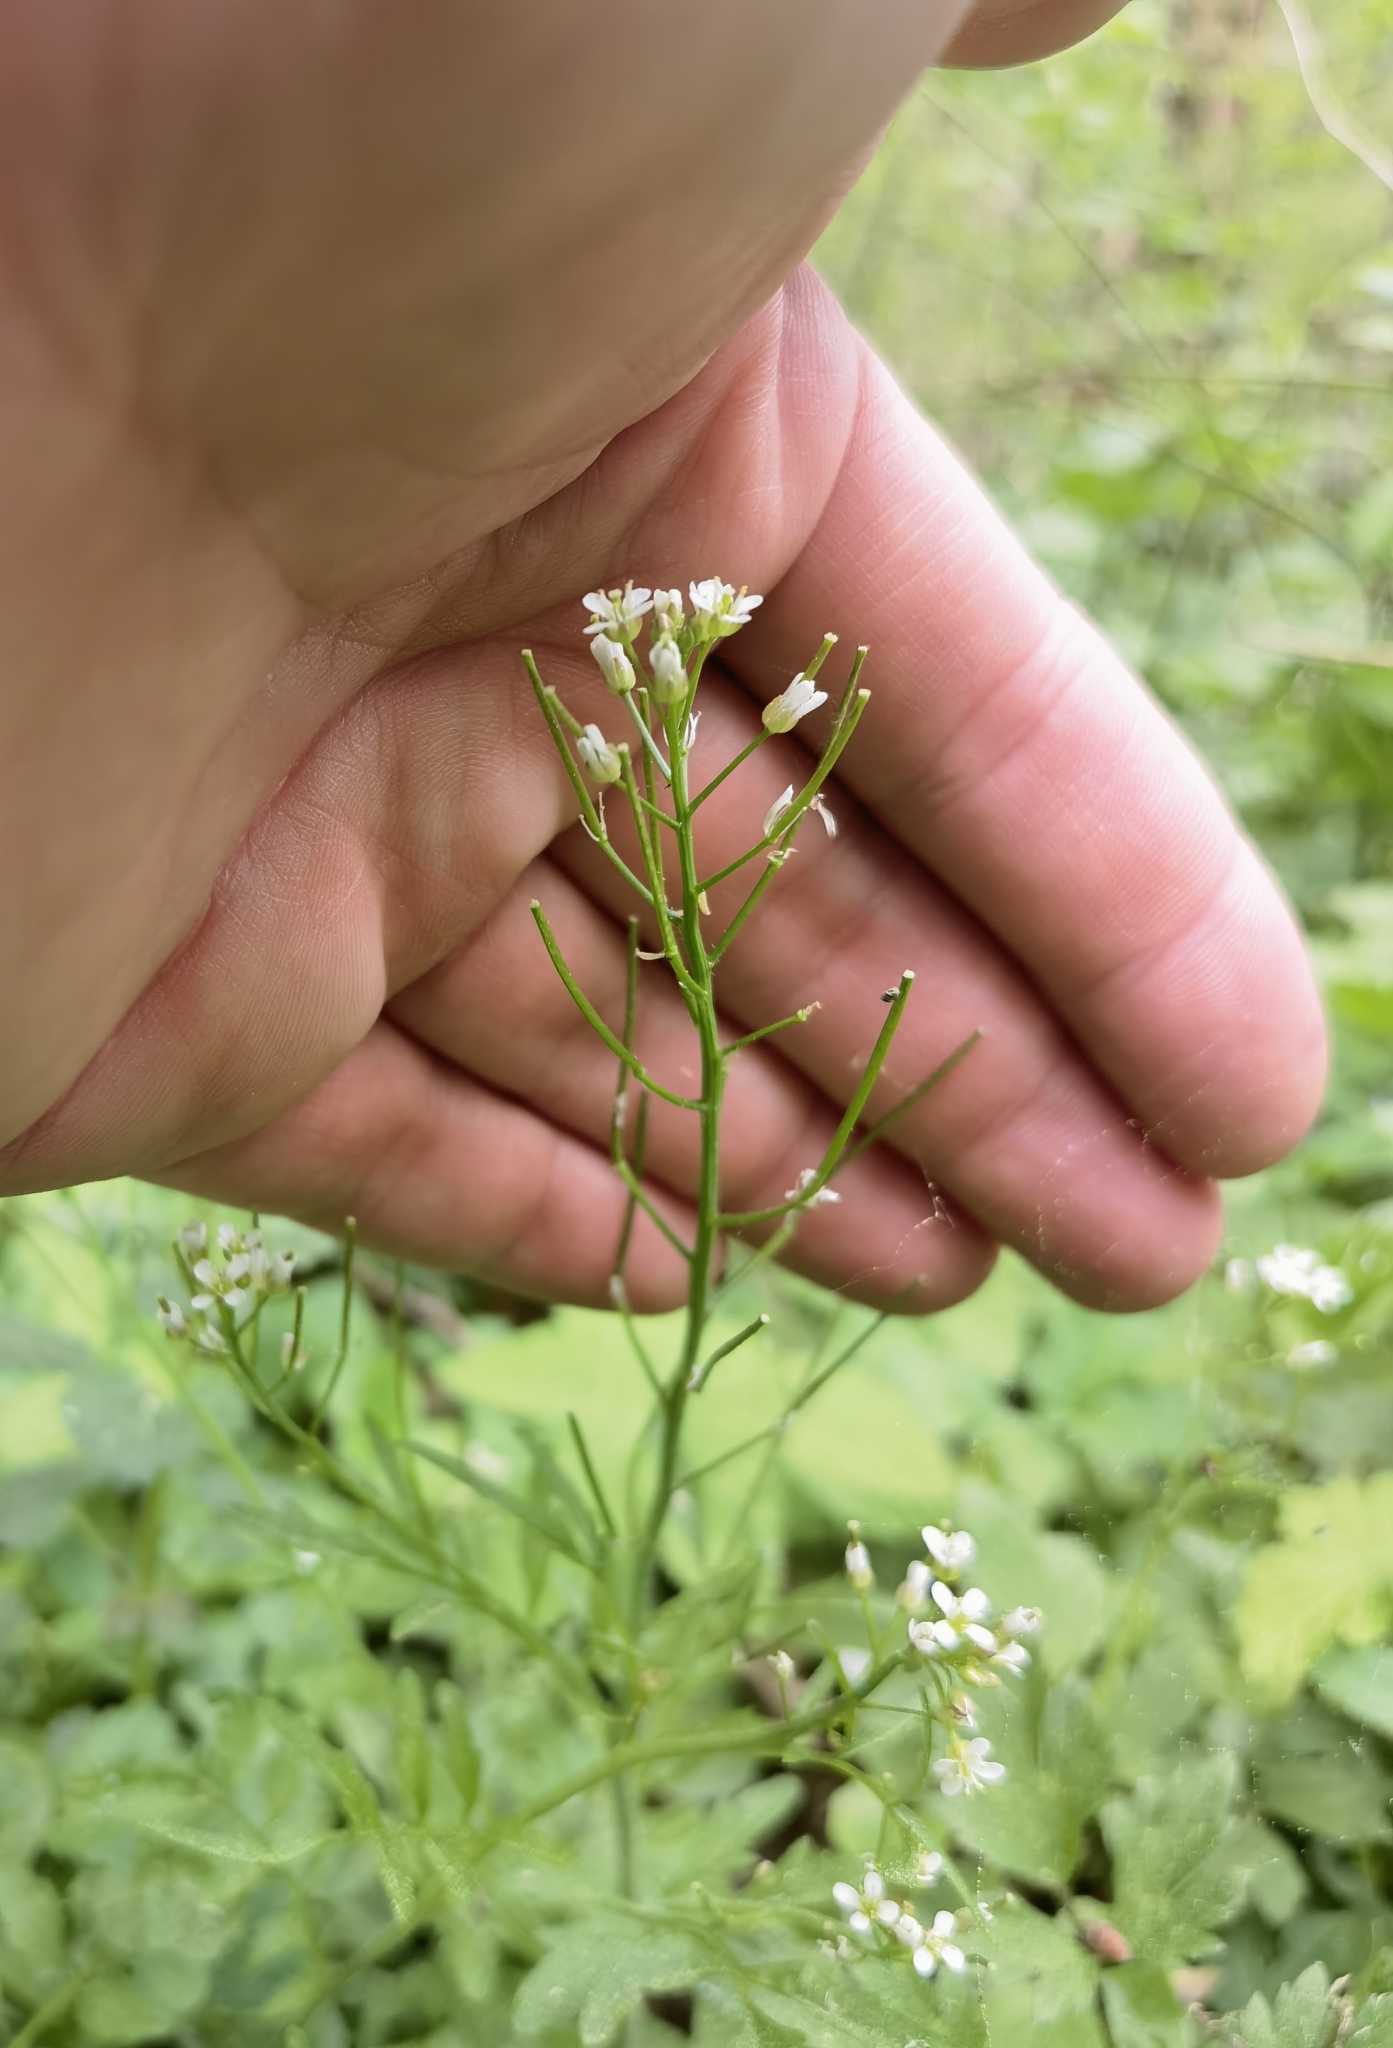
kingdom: Plantae
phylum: Tracheophyta
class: Magnoliopsida
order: Brassicales
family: Brassicaceae
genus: Cardamine
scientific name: Cardamine flexuosa
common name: Woodland bittercress
